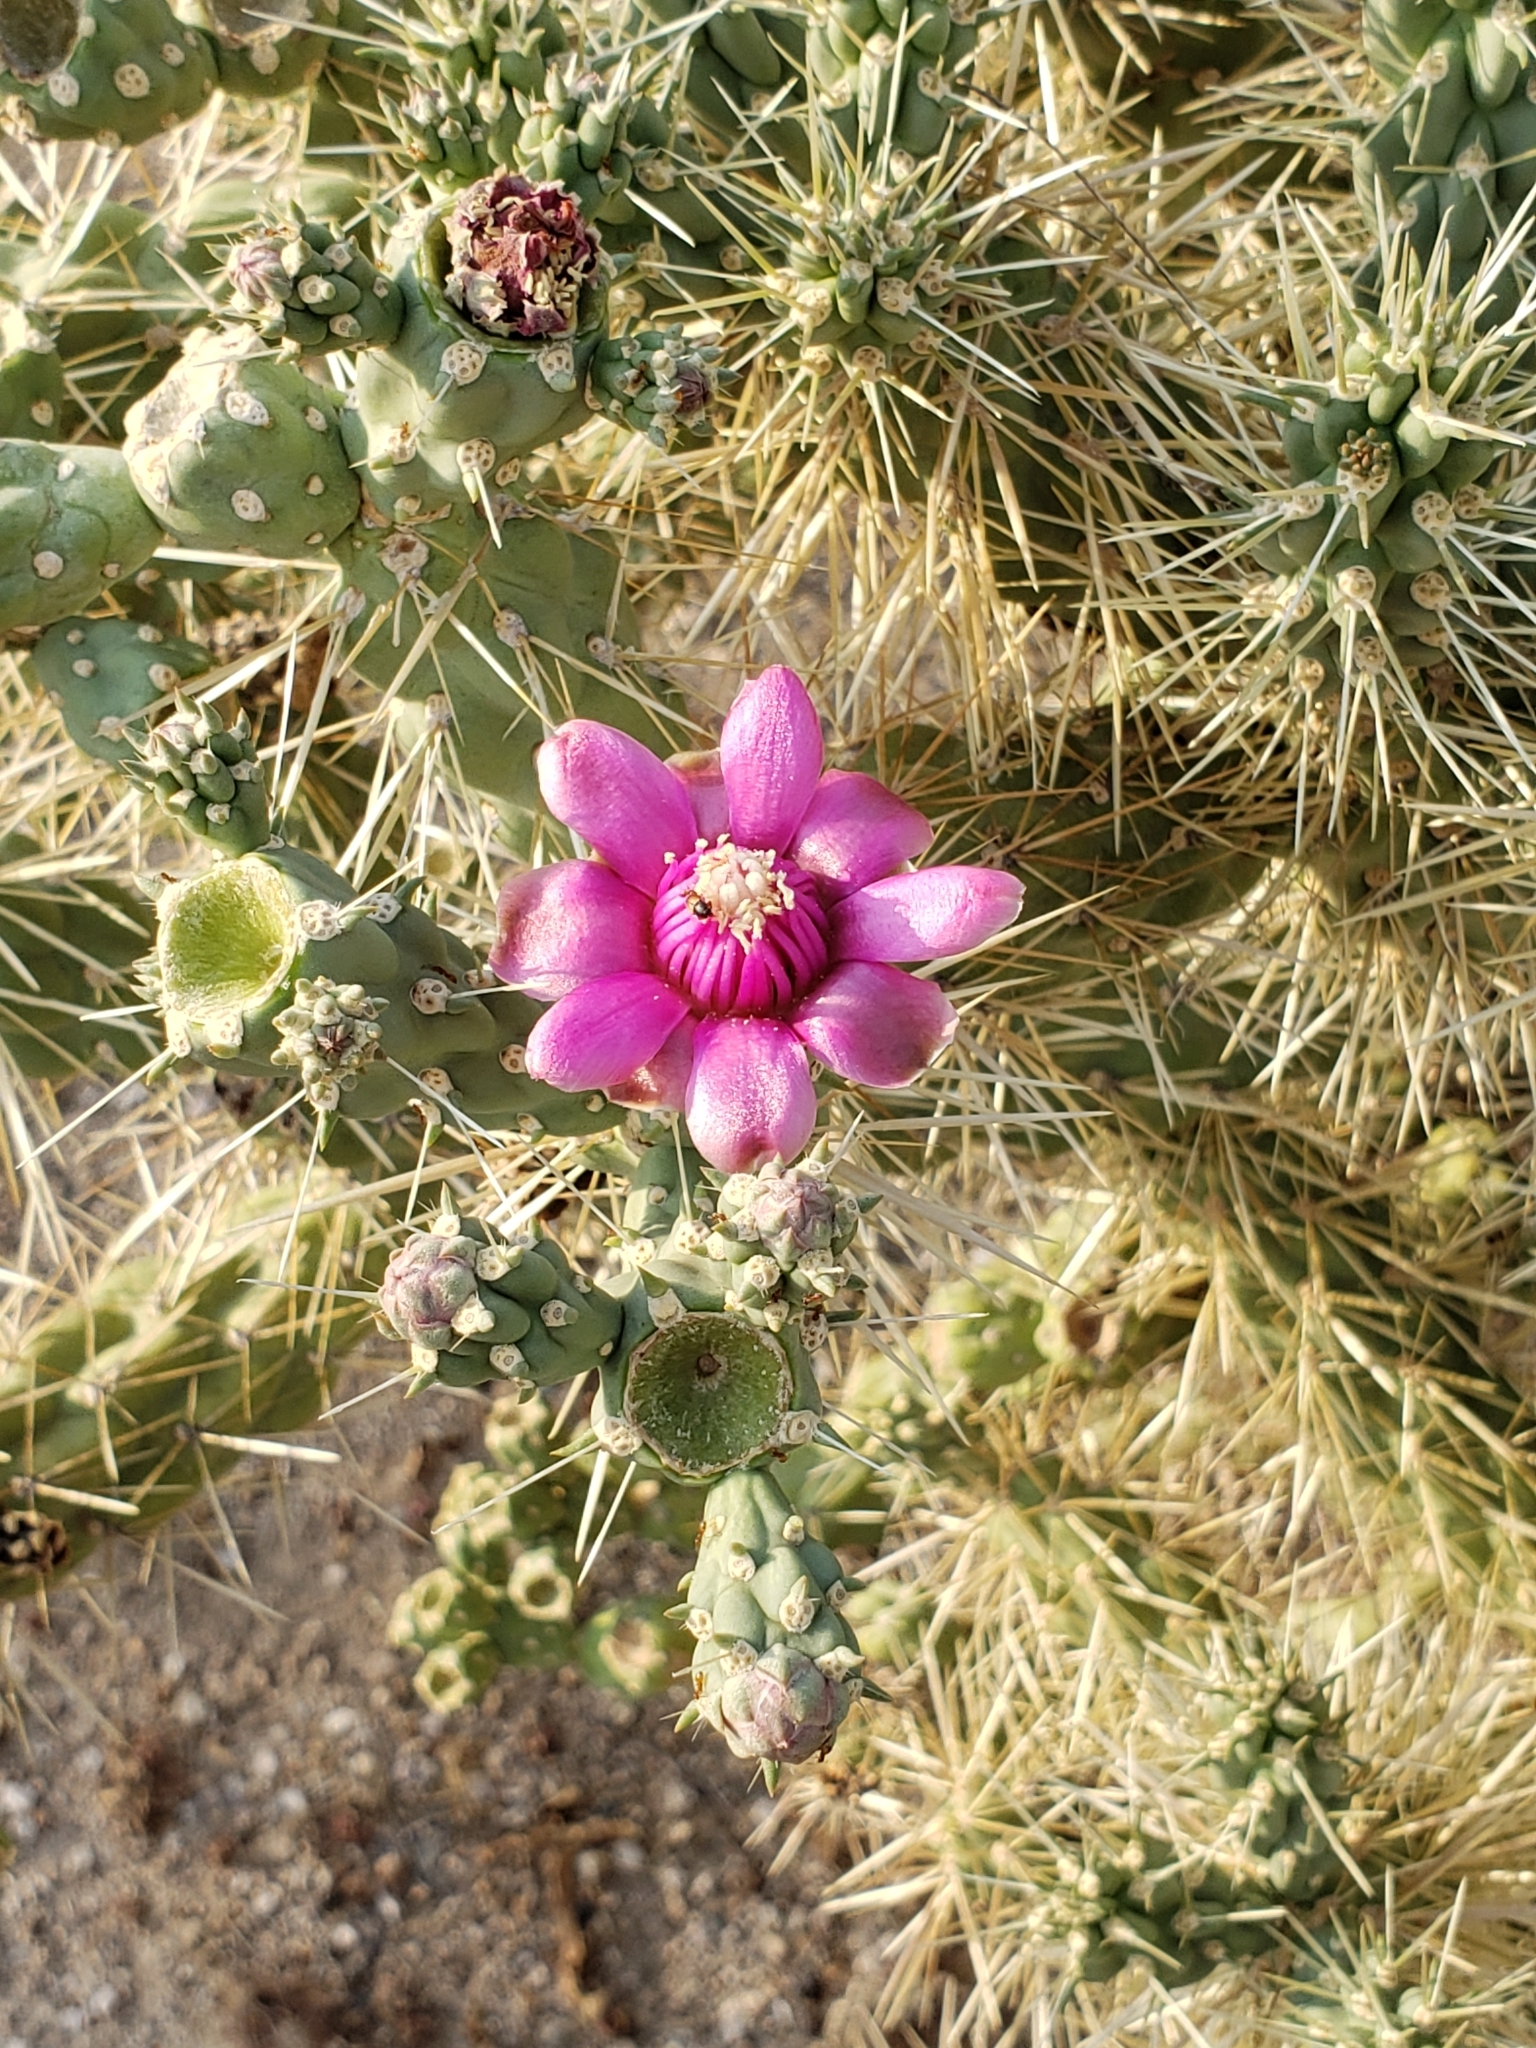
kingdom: Plantae
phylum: Tracheophyta
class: Magnoliopsida
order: Caryophyllales
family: Cactaceae
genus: Cylindropuntia
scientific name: Cylindropuntia fulgida
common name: Jumping cholla
